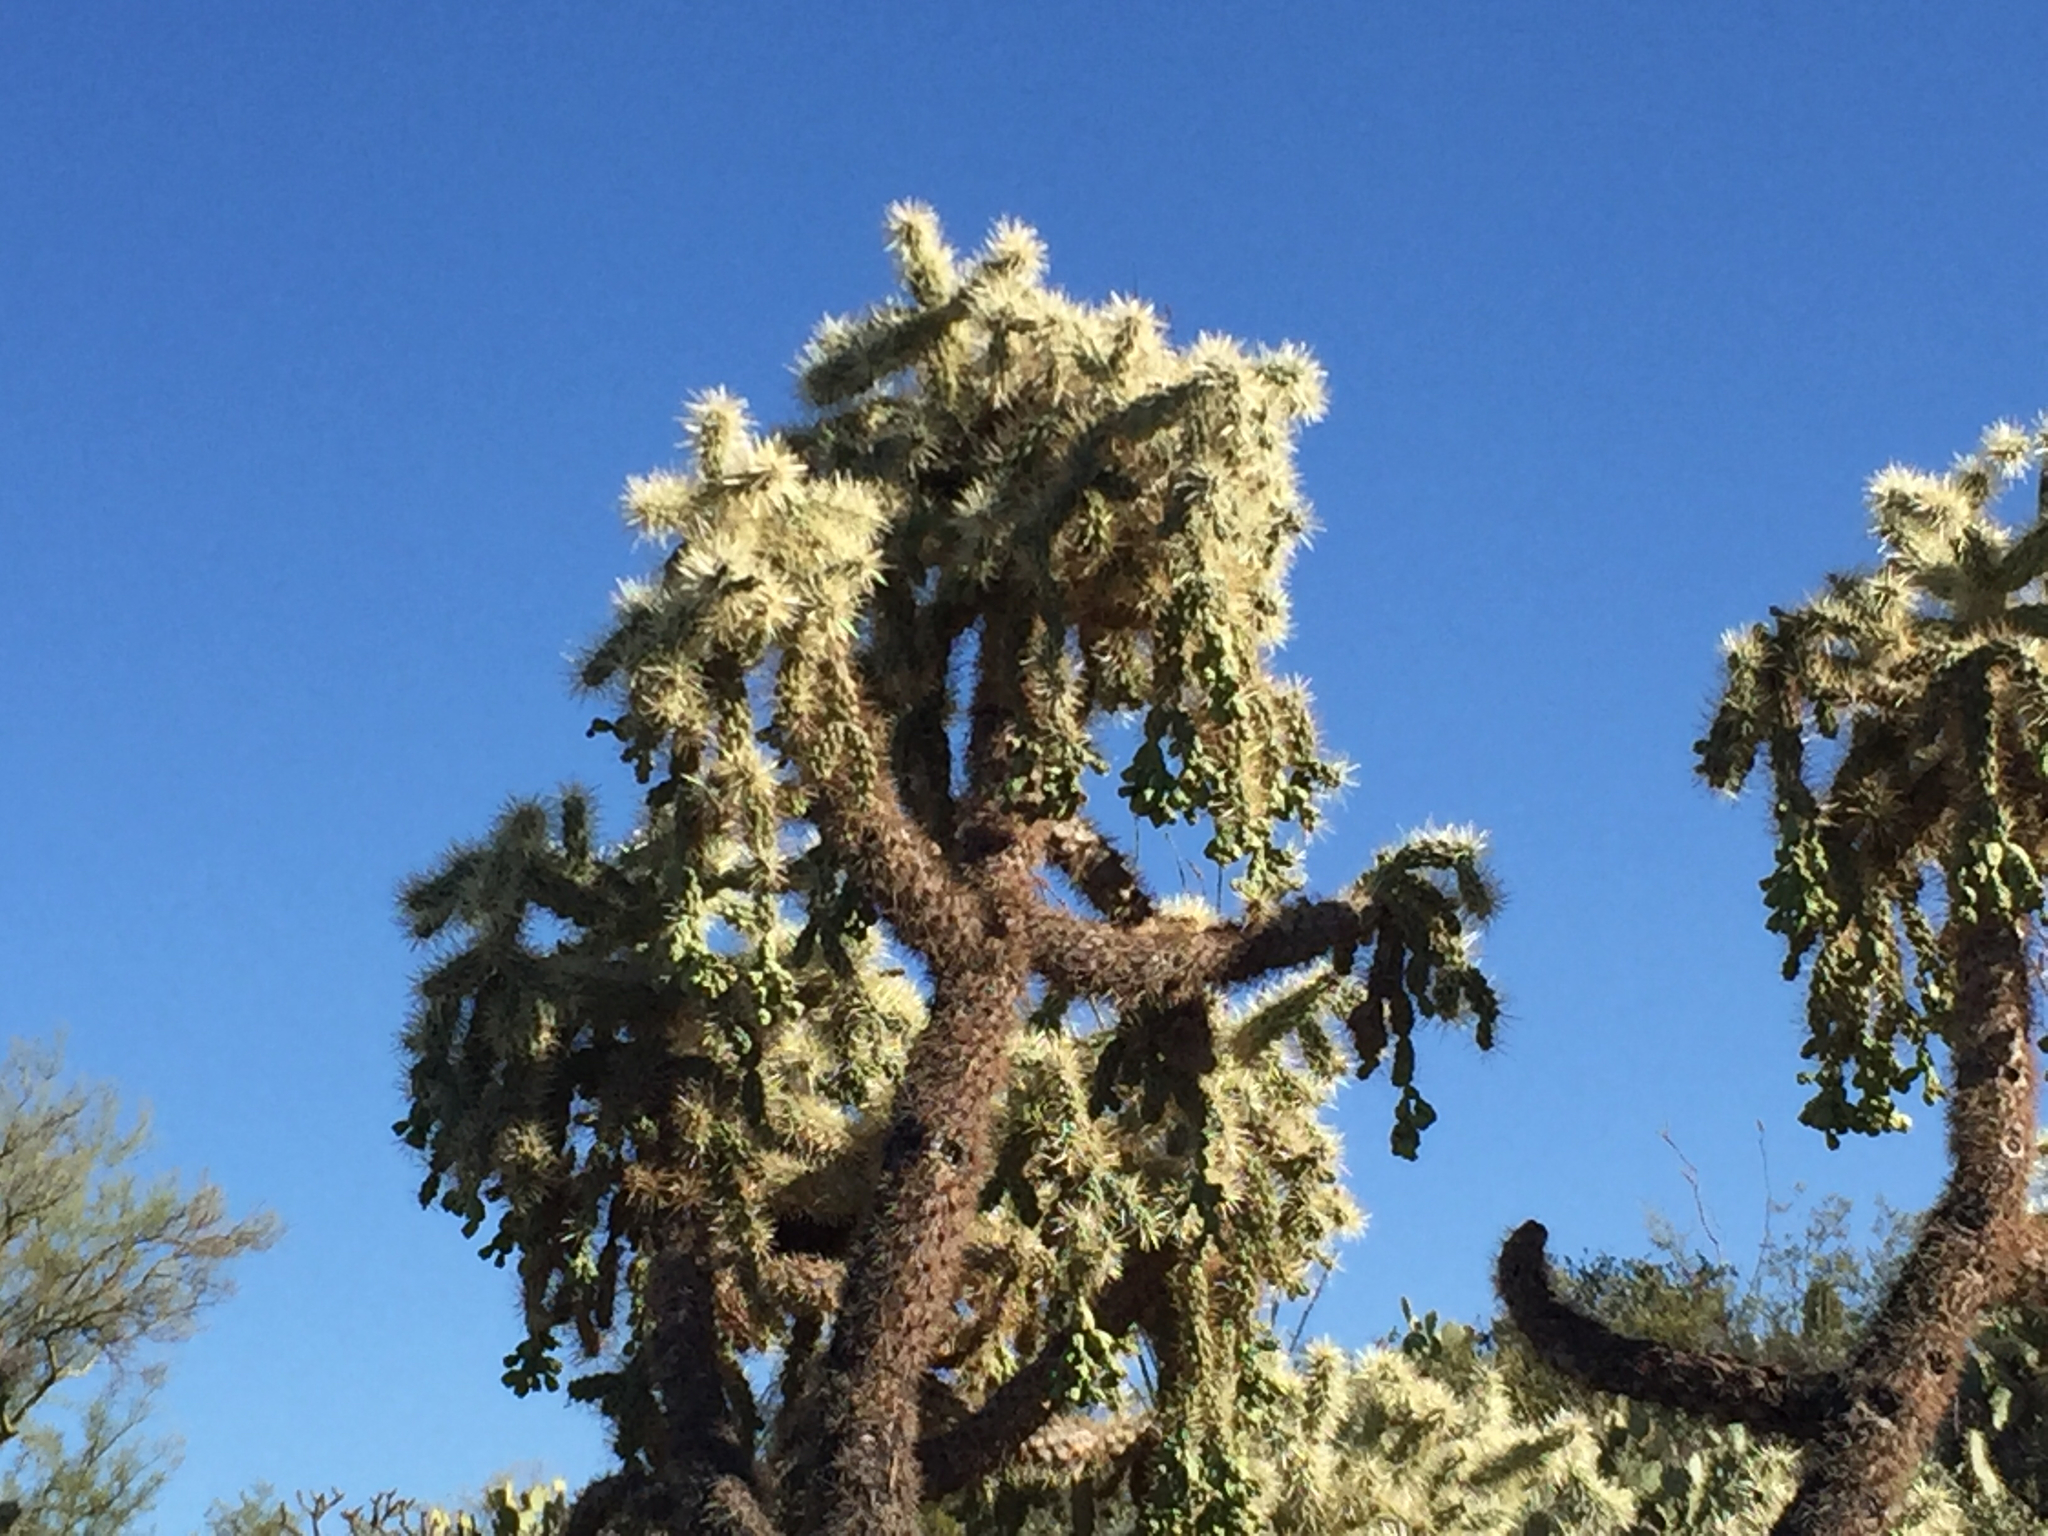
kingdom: Plantae
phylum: Tracheophyta
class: Magnoliopsida
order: Caryophyllales
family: Cactaceae
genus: Cylindropuntia
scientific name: Cylindropuntia fulgida
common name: Jumping cholla
